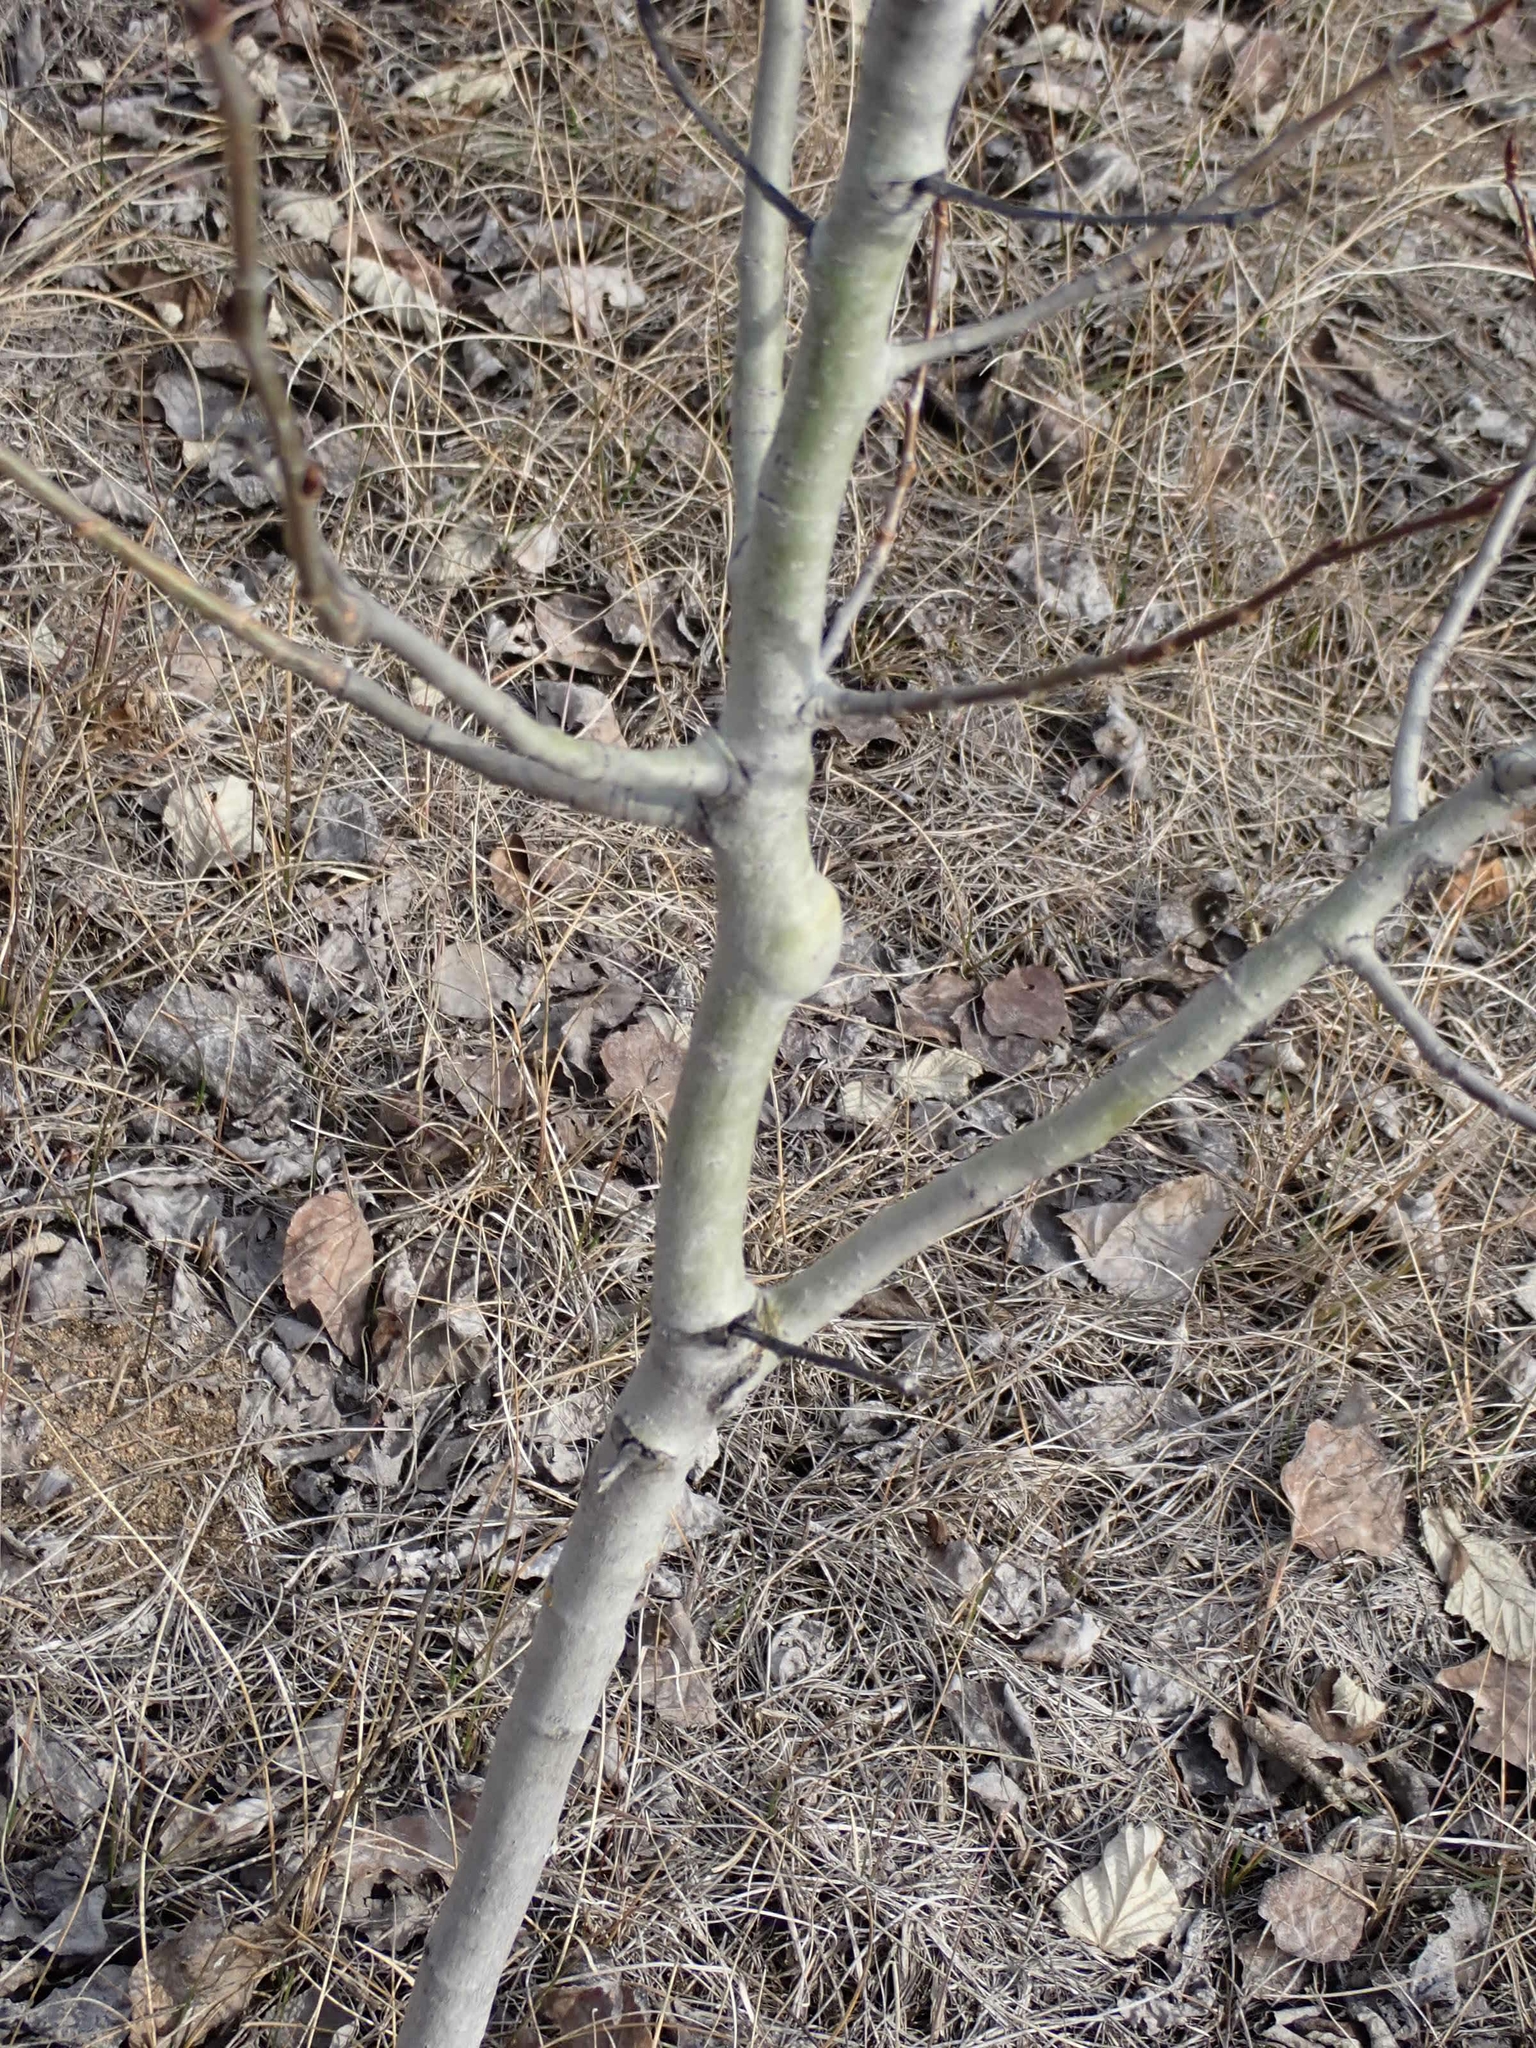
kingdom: Animalia
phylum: Arthropoda
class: Insecta
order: Diptera
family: Agromyzidae
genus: Euhexomyza
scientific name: Euhexomyza schineri
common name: Poplar twiggall fly
